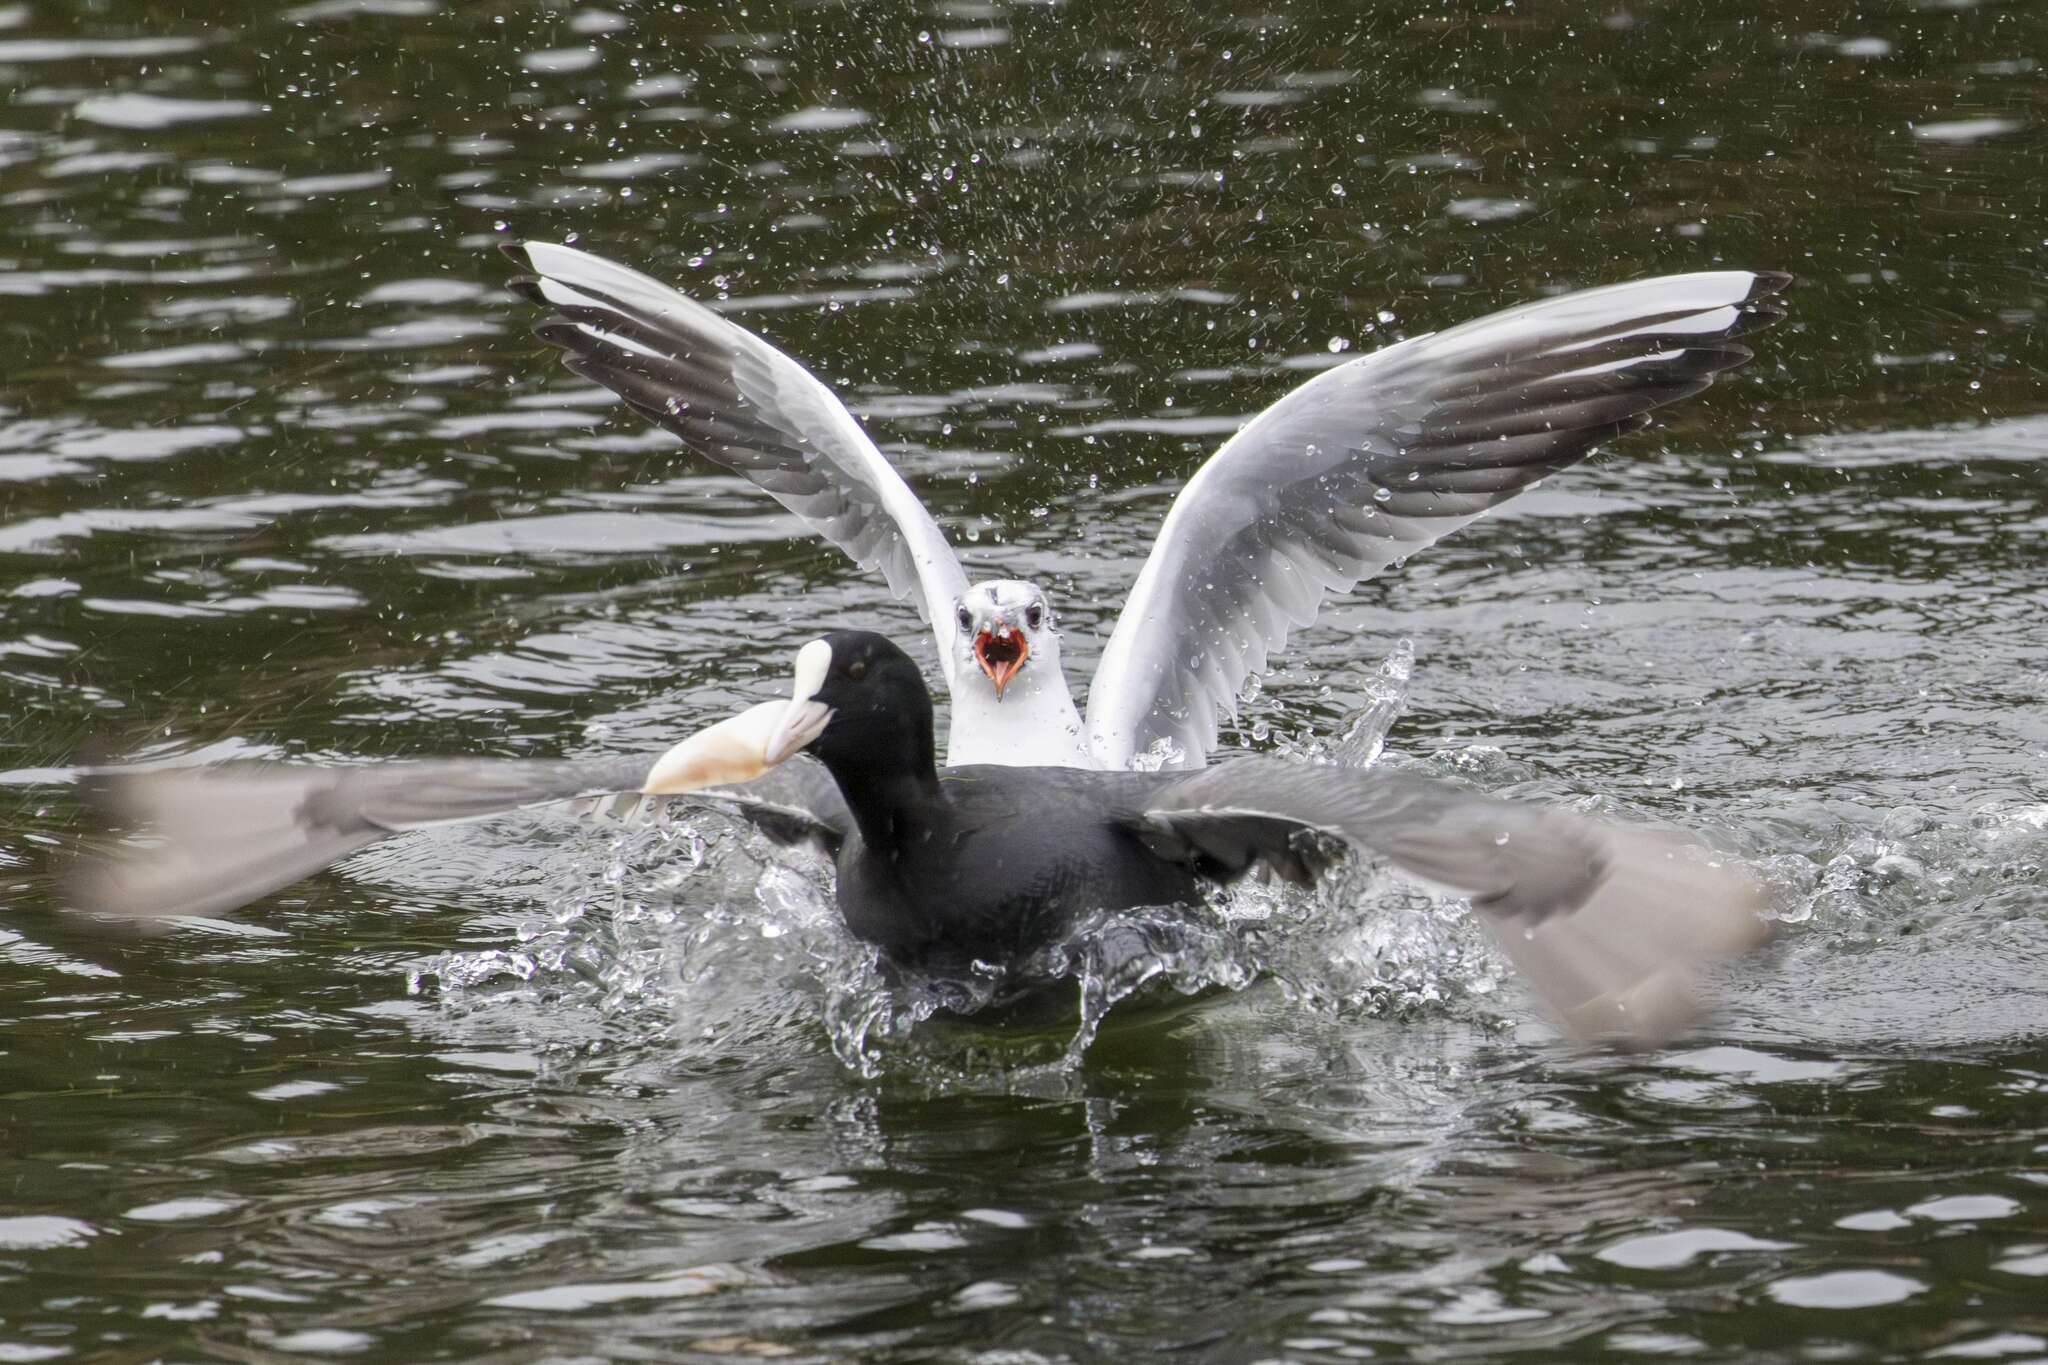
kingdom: Animalia
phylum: Chordata
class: Aves
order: Gruiformes
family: Rallidae
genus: Fulica
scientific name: Fulica atra
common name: Eurasian coot
